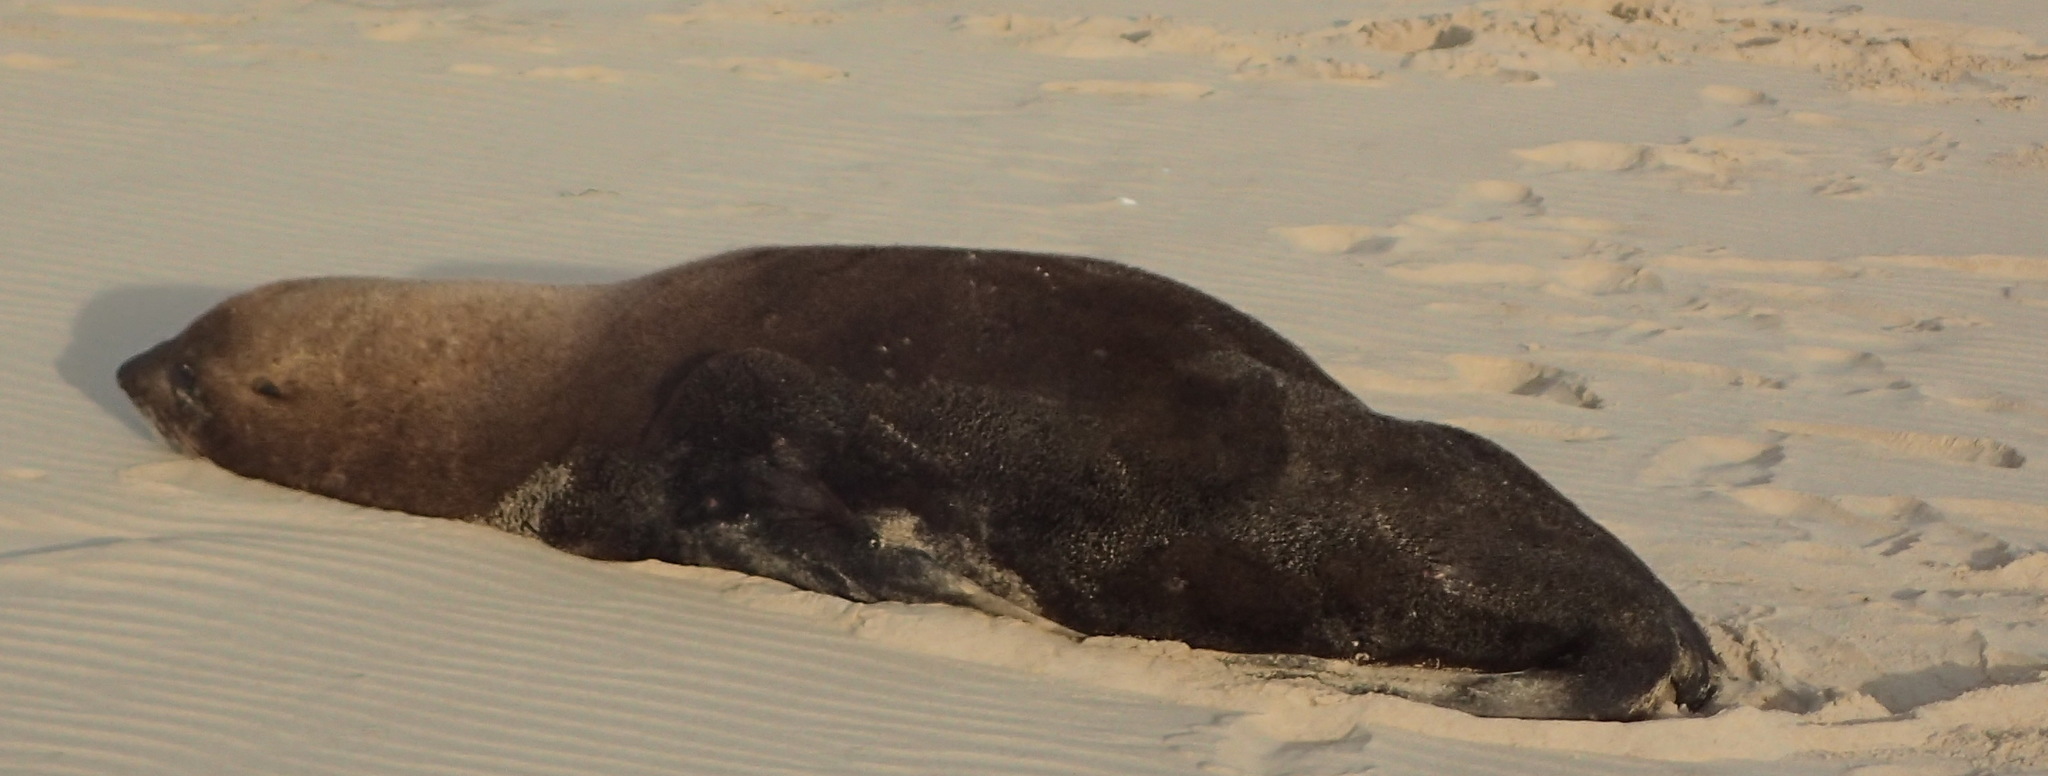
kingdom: Animalia
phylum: Chordata
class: Mammalia
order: Carnivora
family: Otariidae
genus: Arctocephalus
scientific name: Arctocephalus pusillus
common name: Brown fur seal
